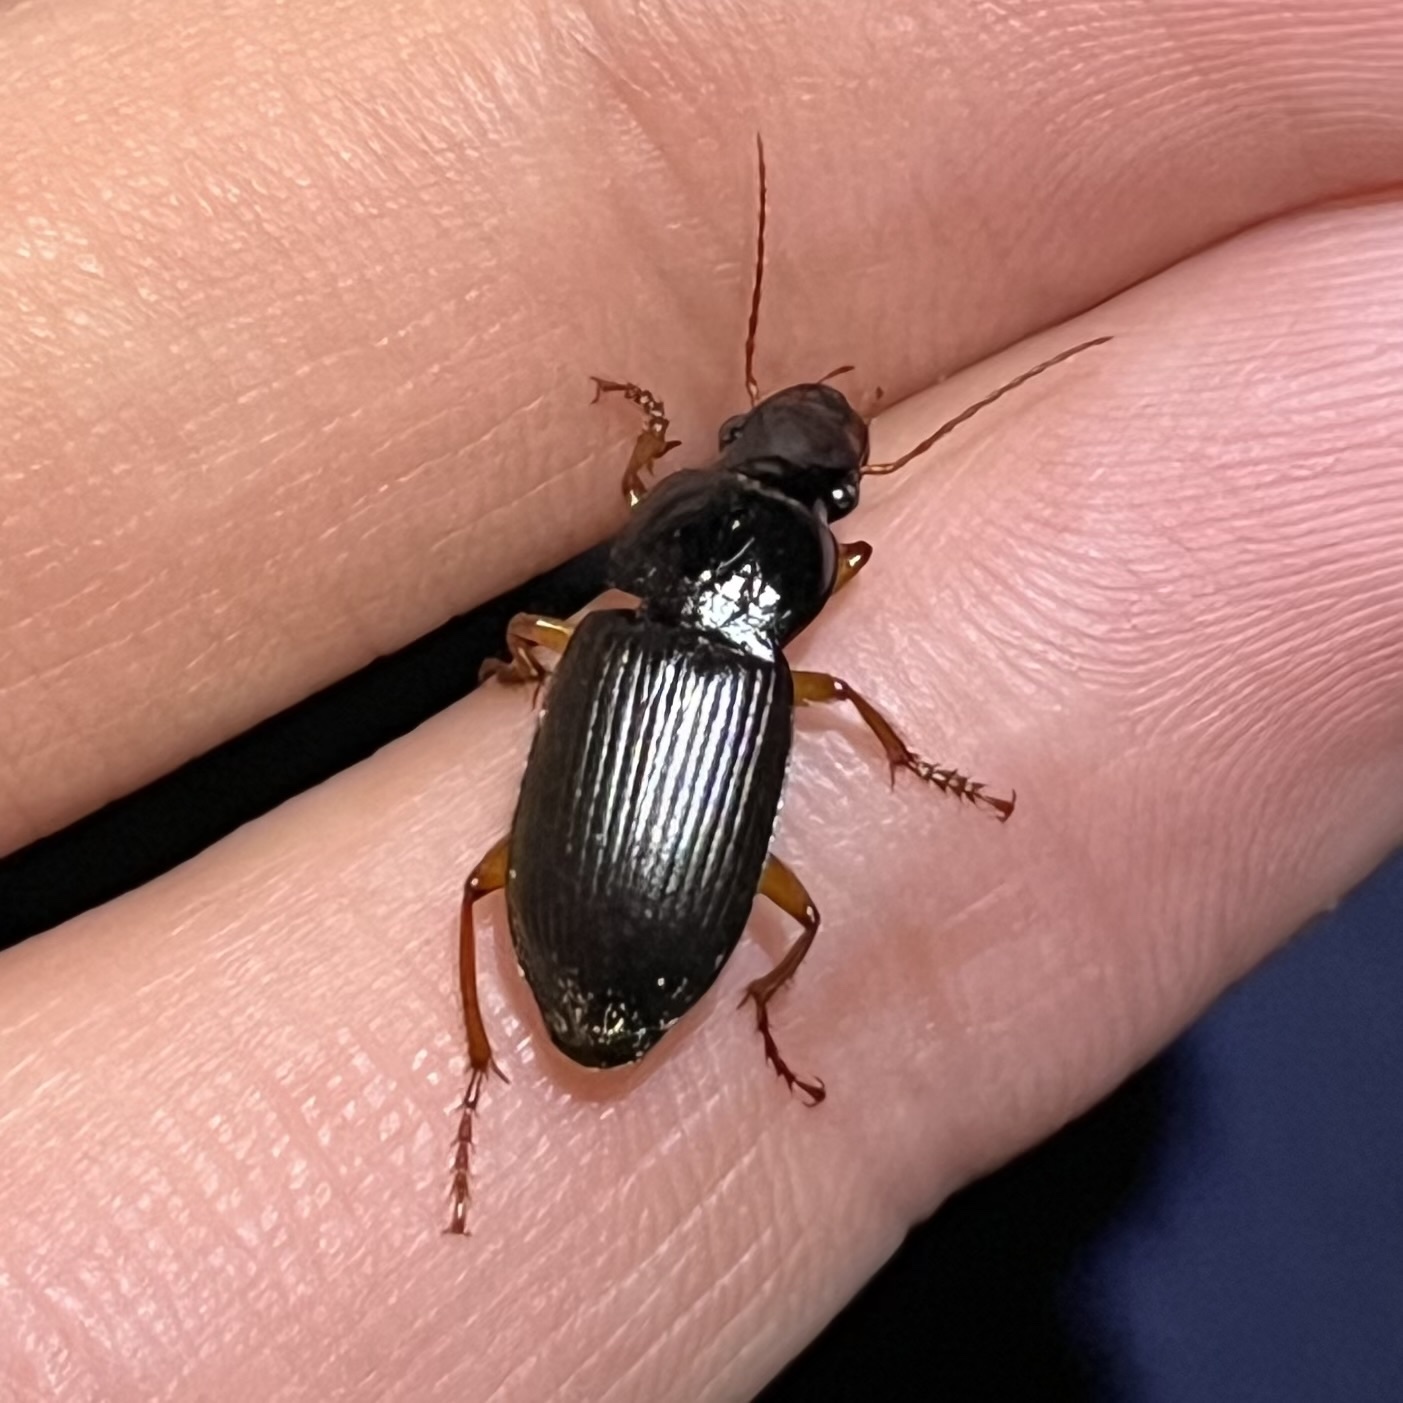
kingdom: Animalia
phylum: Arthropoda
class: Insecta
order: Coleoptera
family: Carabidae
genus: Harpalus
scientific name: Harpalus rufipes
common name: Strawberry harp ground beetle
